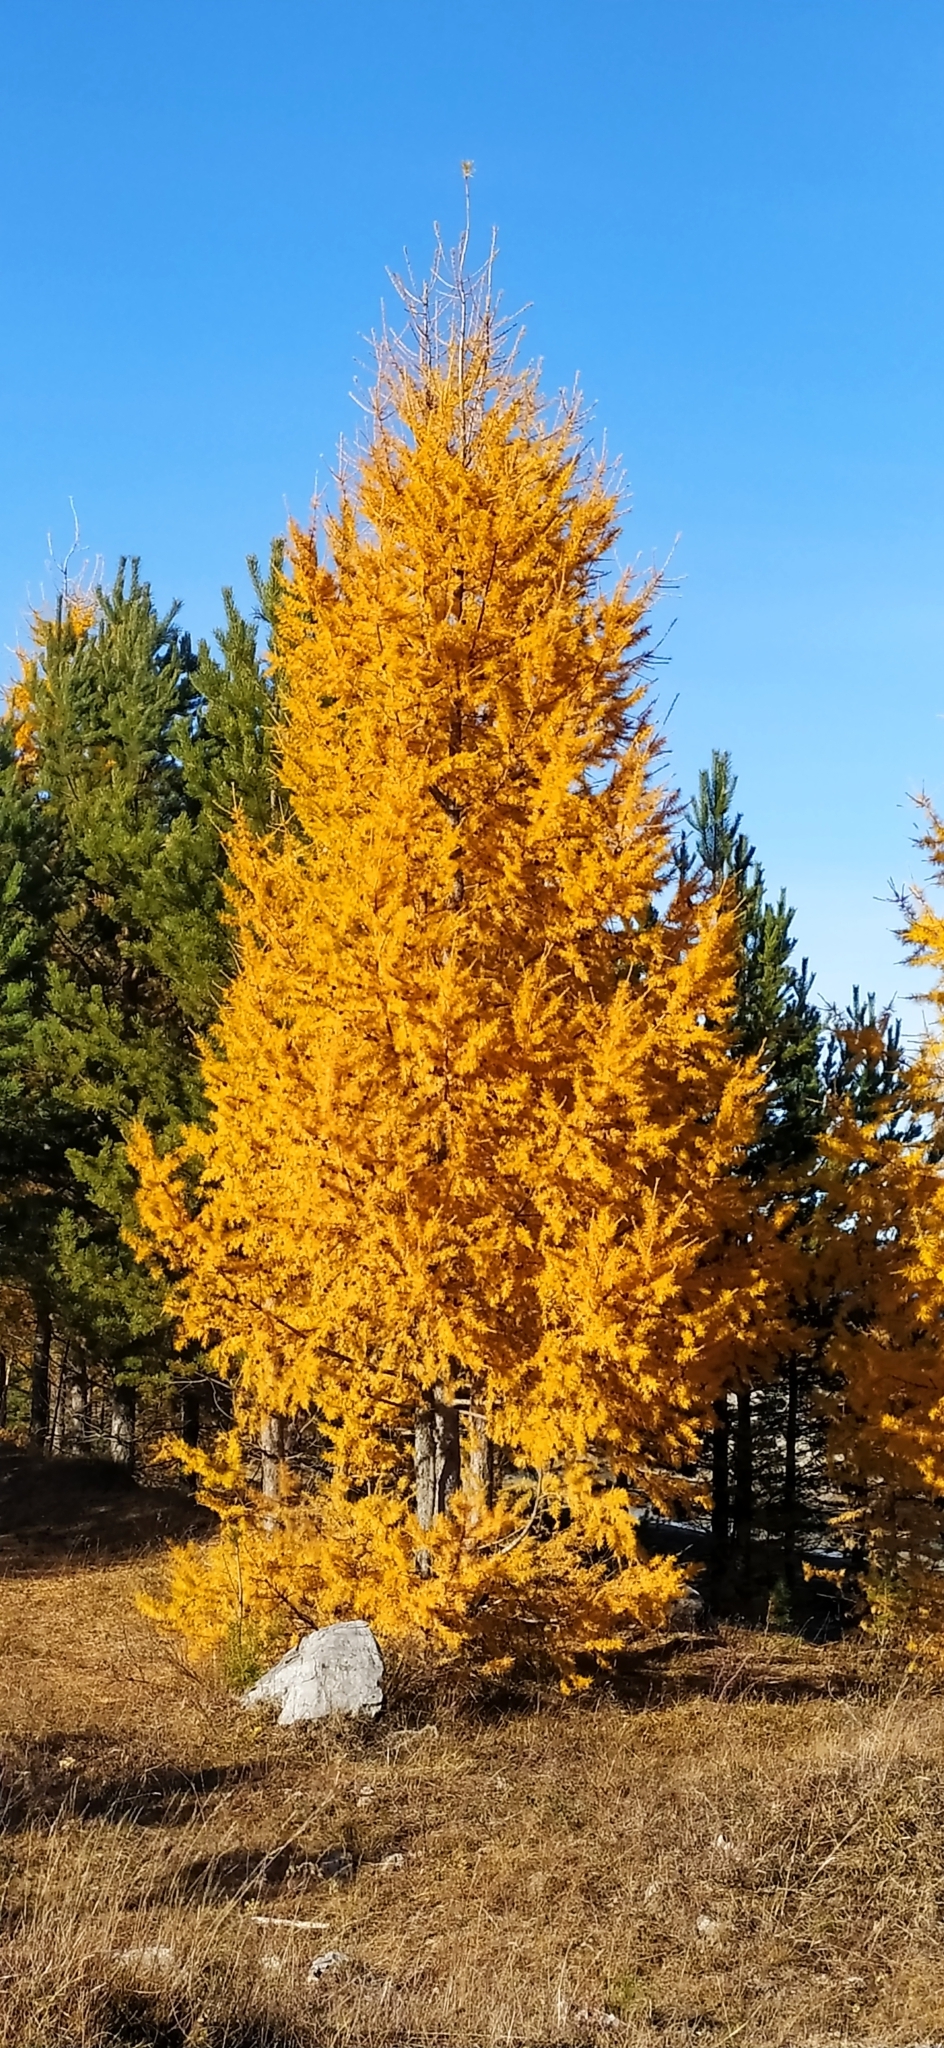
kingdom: Plantae
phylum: Tracheophyta
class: Pinopsida
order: Pinales
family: Pinaceae
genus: Larix
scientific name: Larix sibirica
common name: Siberian larch
